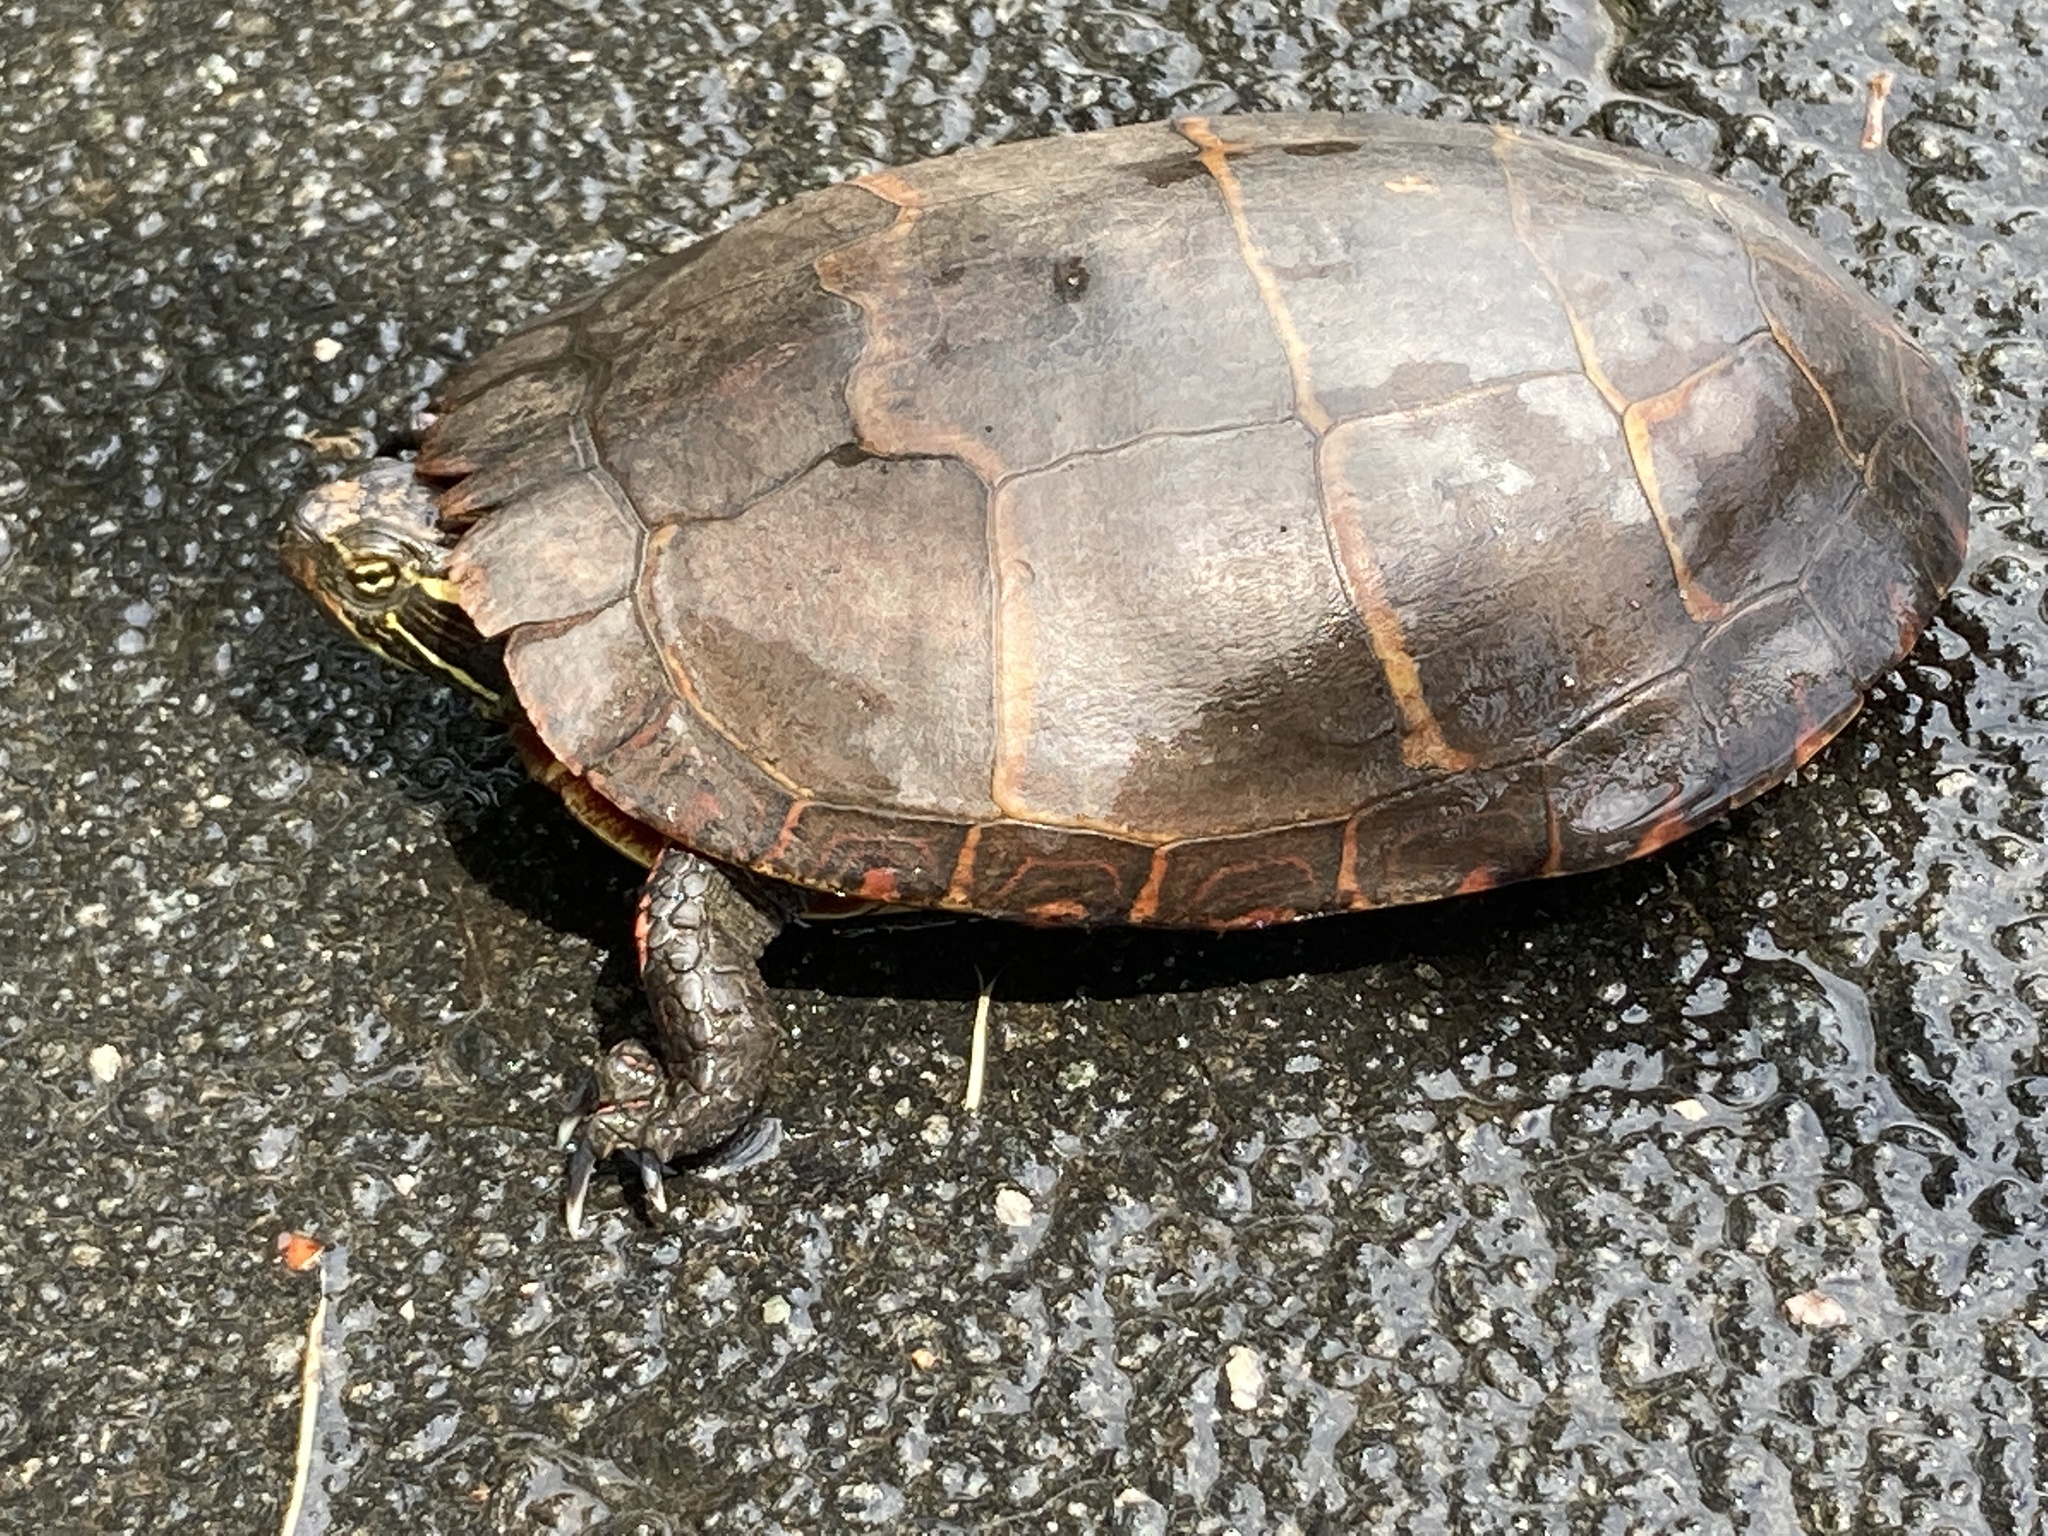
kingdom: Animalia
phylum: Chordata
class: Testudines
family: Emydidae
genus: Chrysemys
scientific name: Chrysemys picta
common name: Painted turtle
